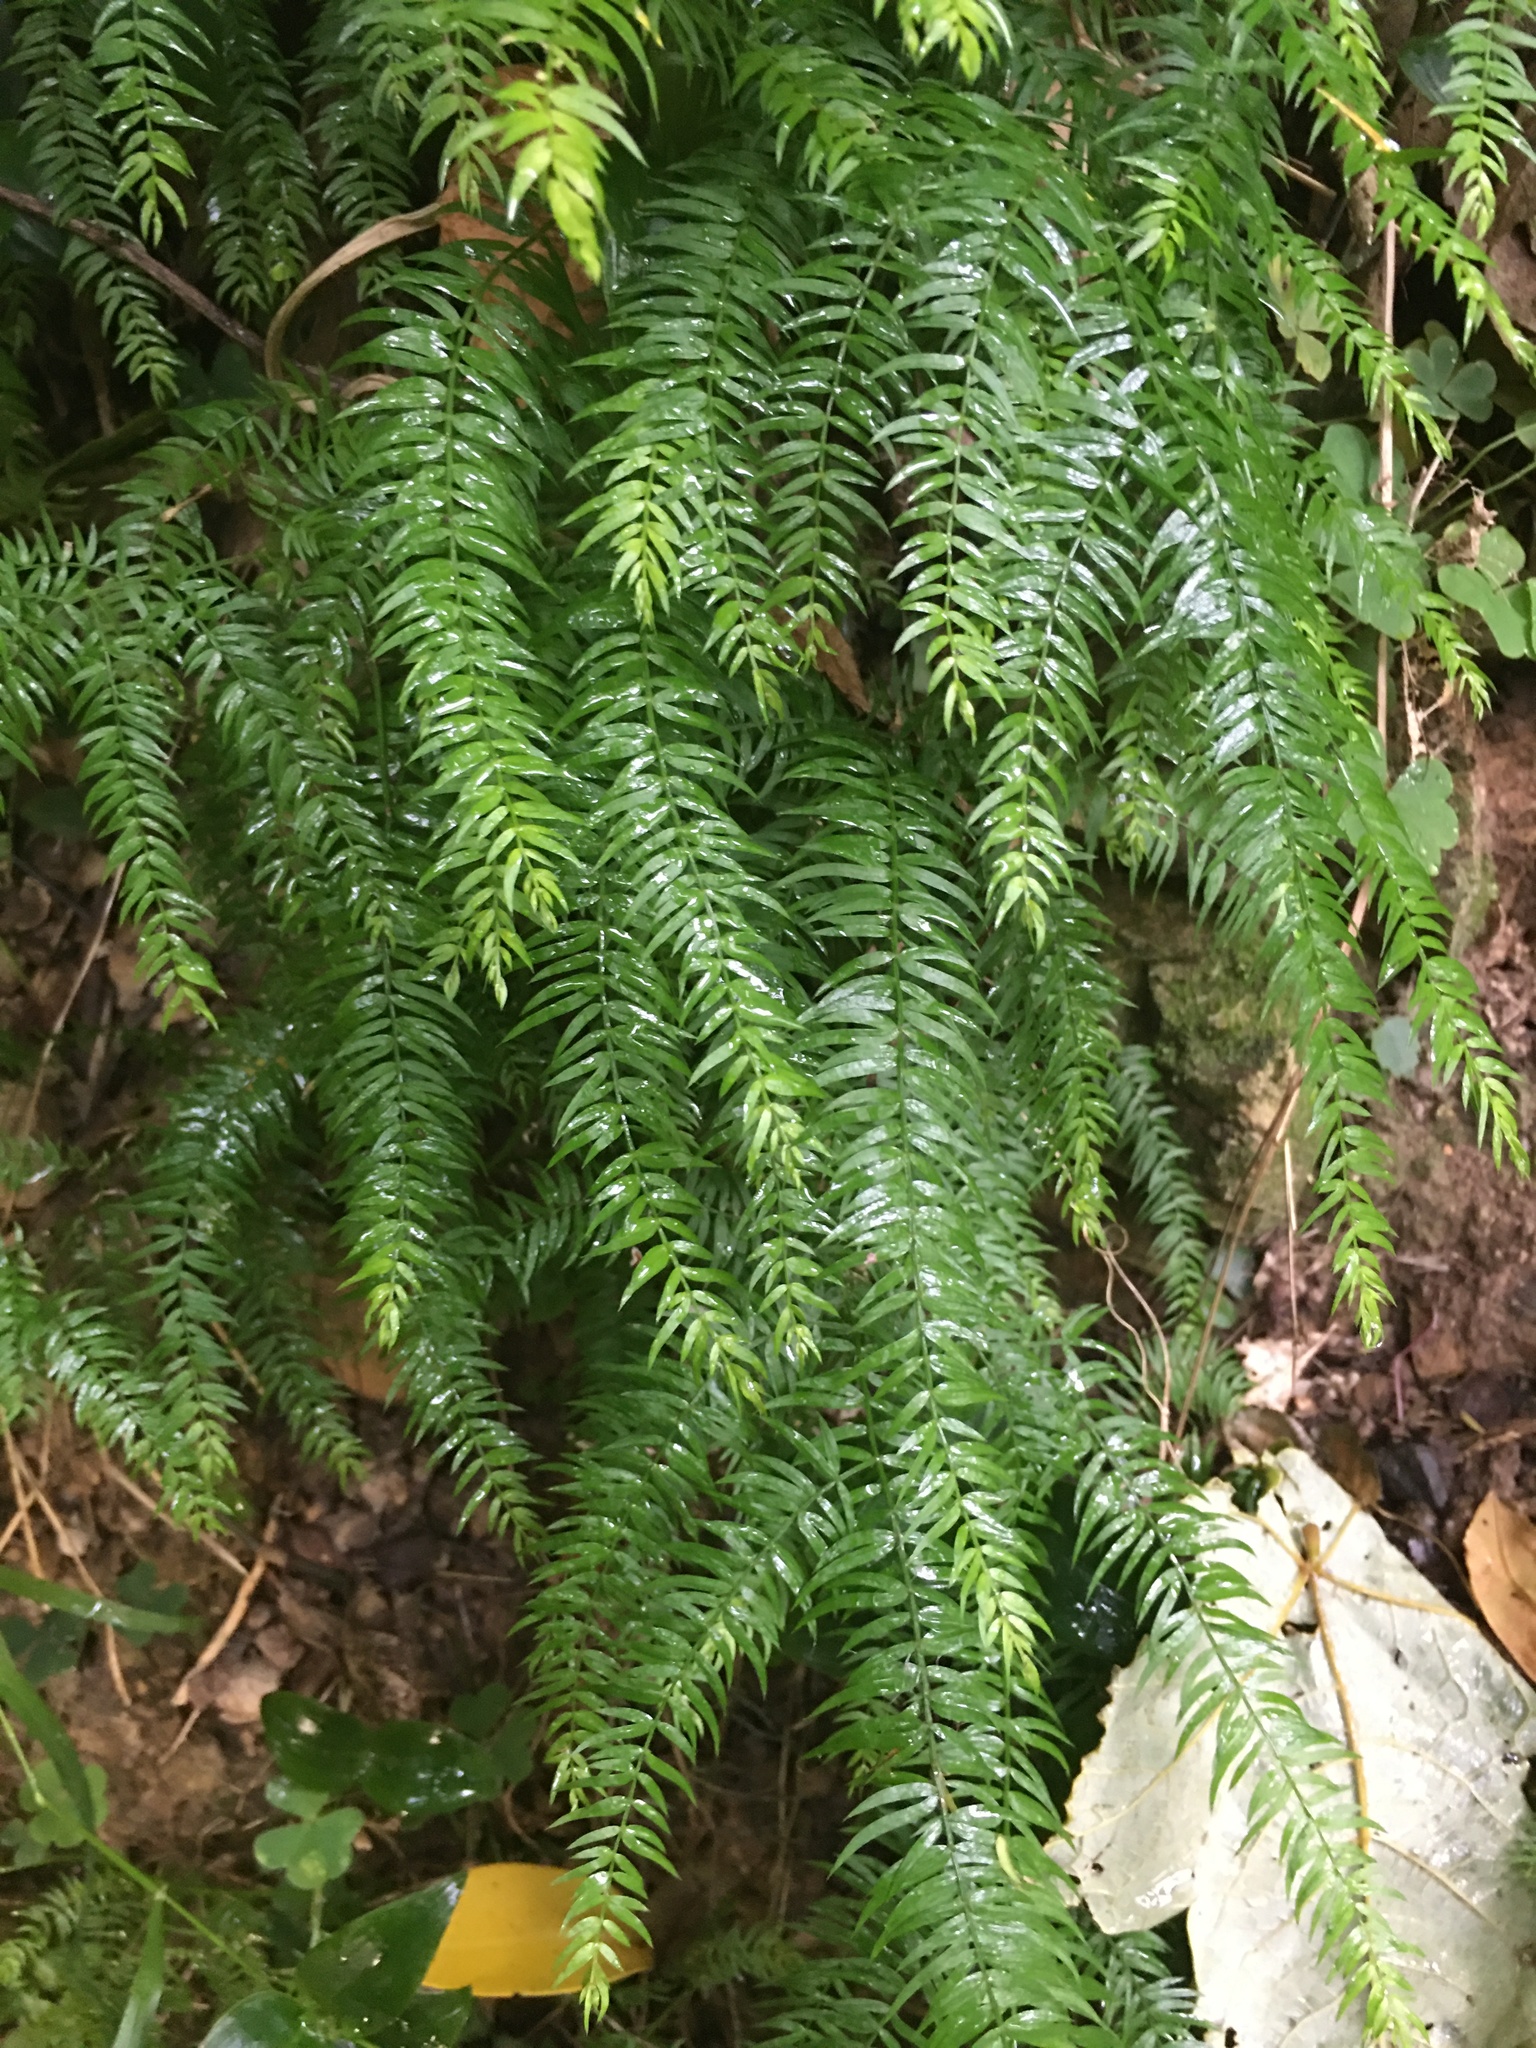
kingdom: Plantae
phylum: Tracheophyta
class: Liliopsida
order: Asparagales
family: Asparagaceae
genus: Asparagus
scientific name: Asparagus scandens
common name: Asparagus-fern
